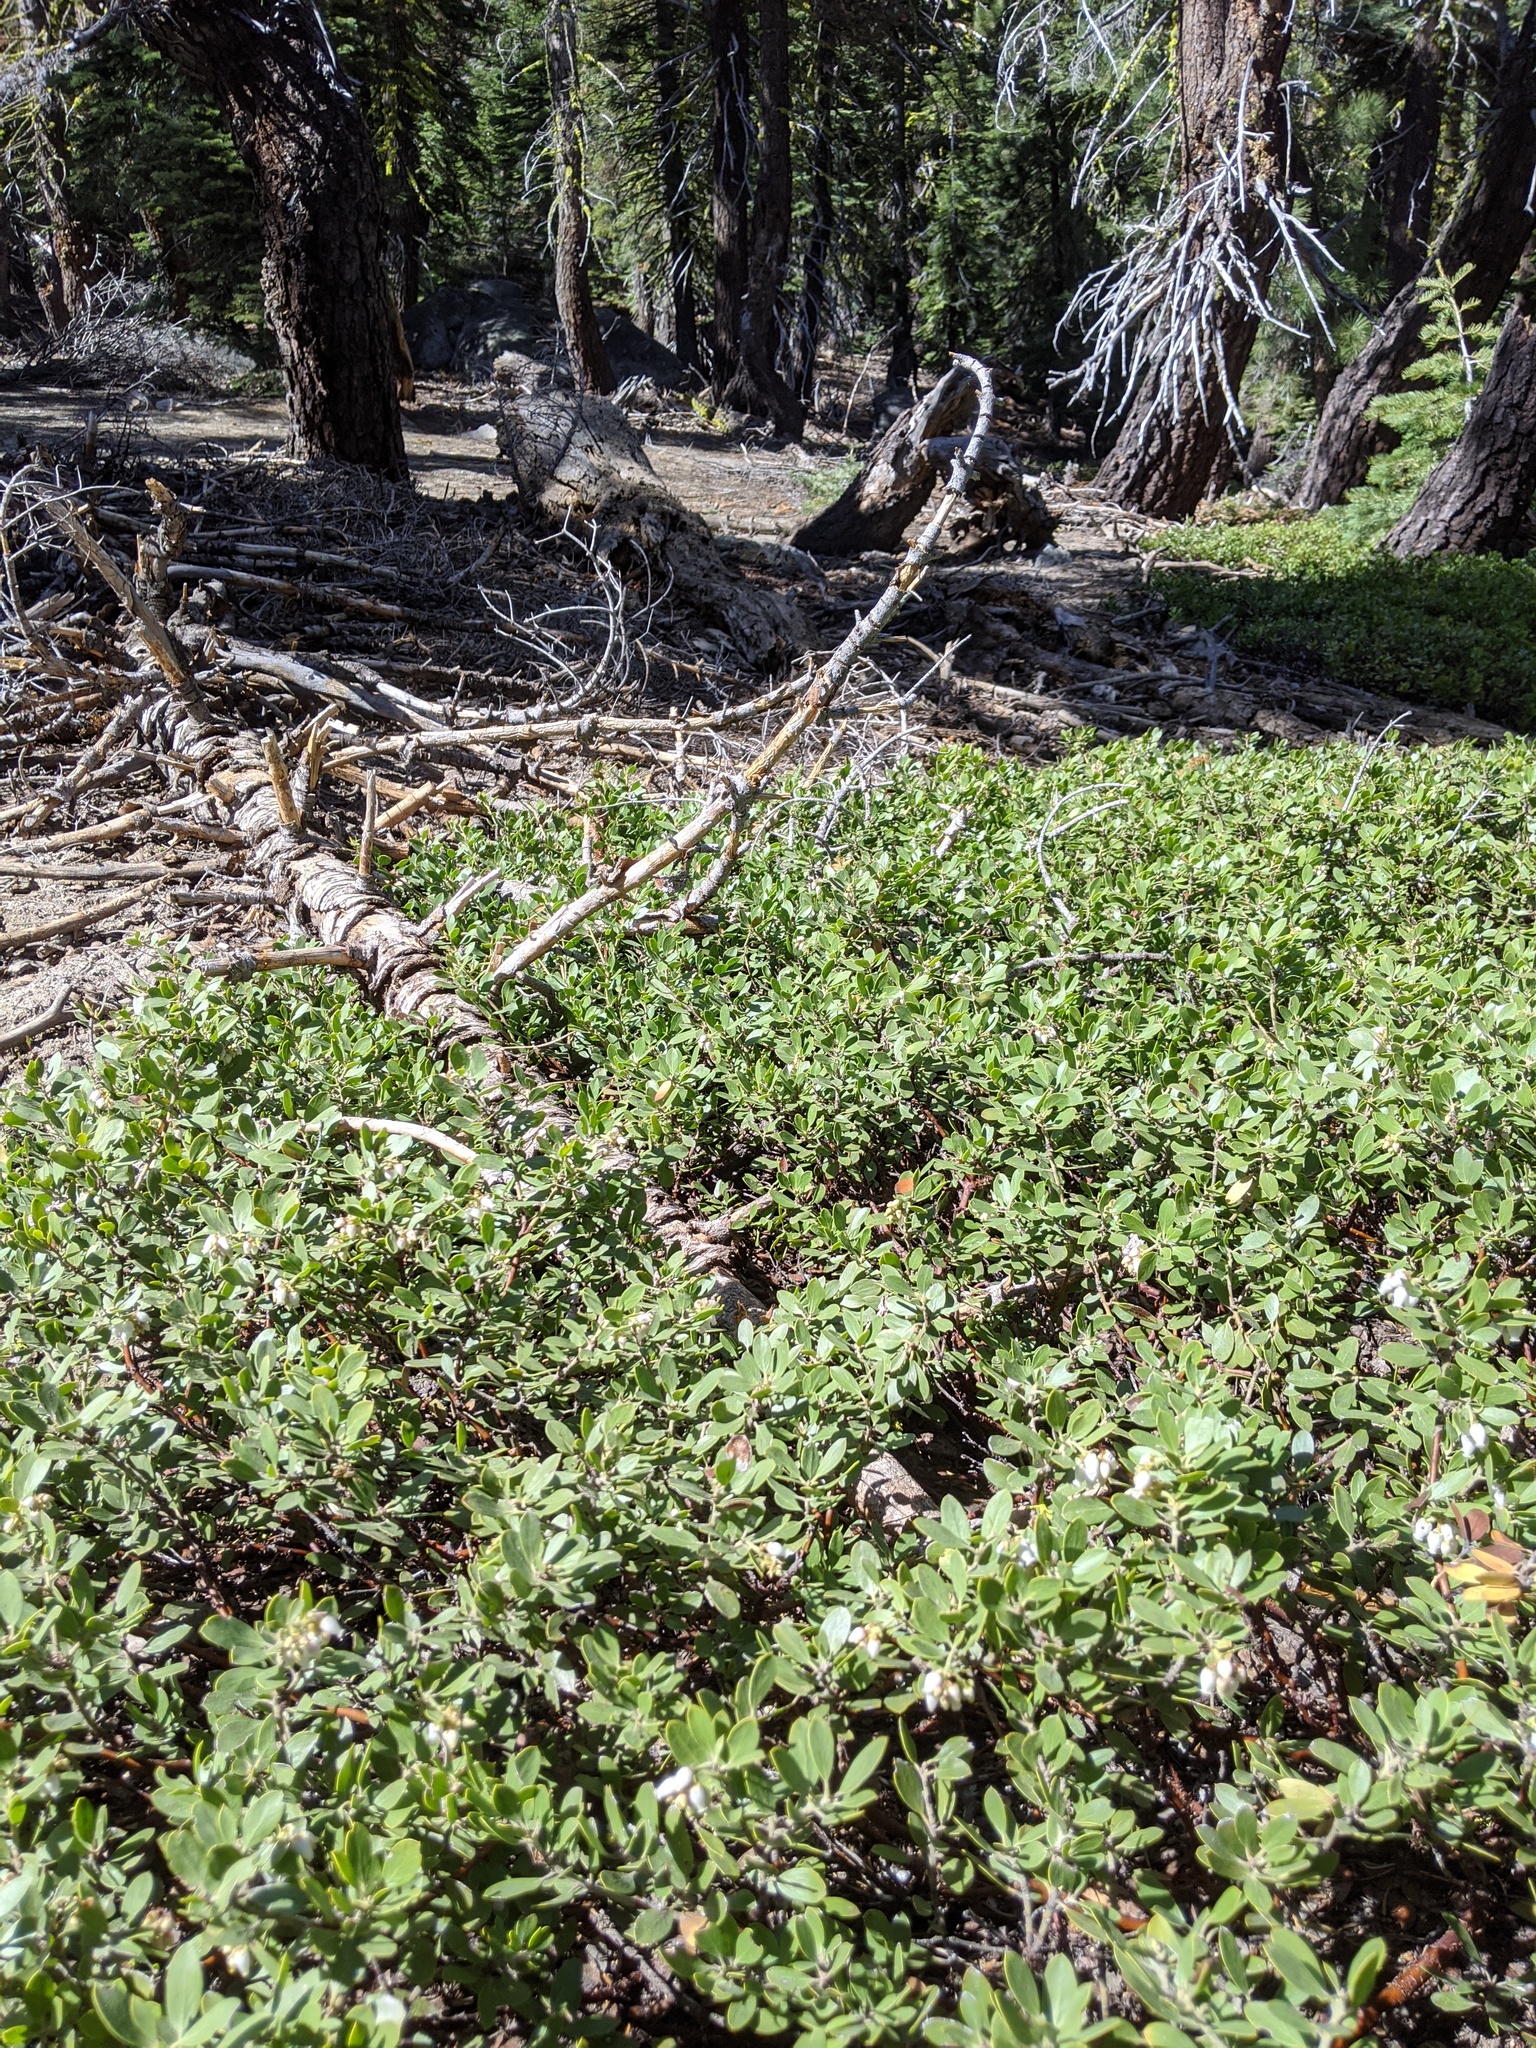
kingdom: Plantae
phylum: Tracheophyta
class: Magnoliopsida
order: Ericales
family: Ericaceae
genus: Arctostaphylos
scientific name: Arctostaphylos nevadensis
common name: Pinemat manzanita
